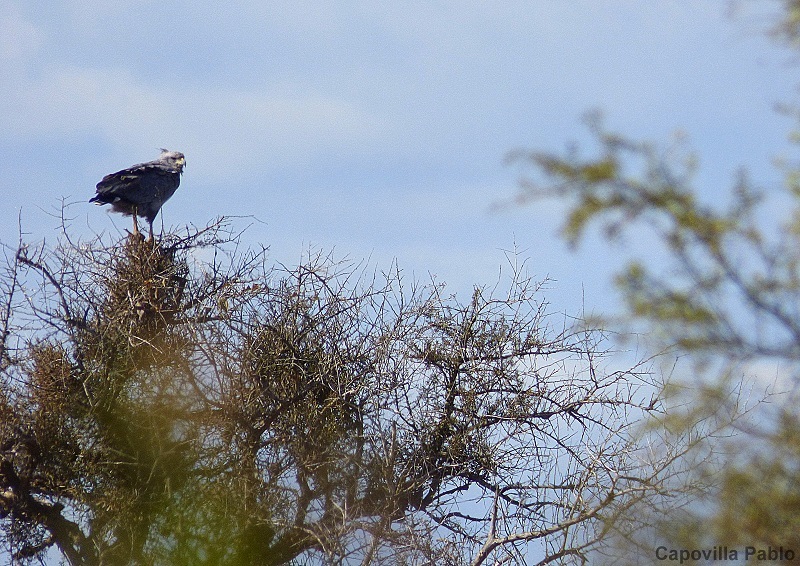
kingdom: Animalia
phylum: Chordata
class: Aves
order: Accipitriformes
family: Accipitridae
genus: Harpyhaliaetus
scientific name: Harpyhaliaetus coronatus
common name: Crowned solitary eagle
